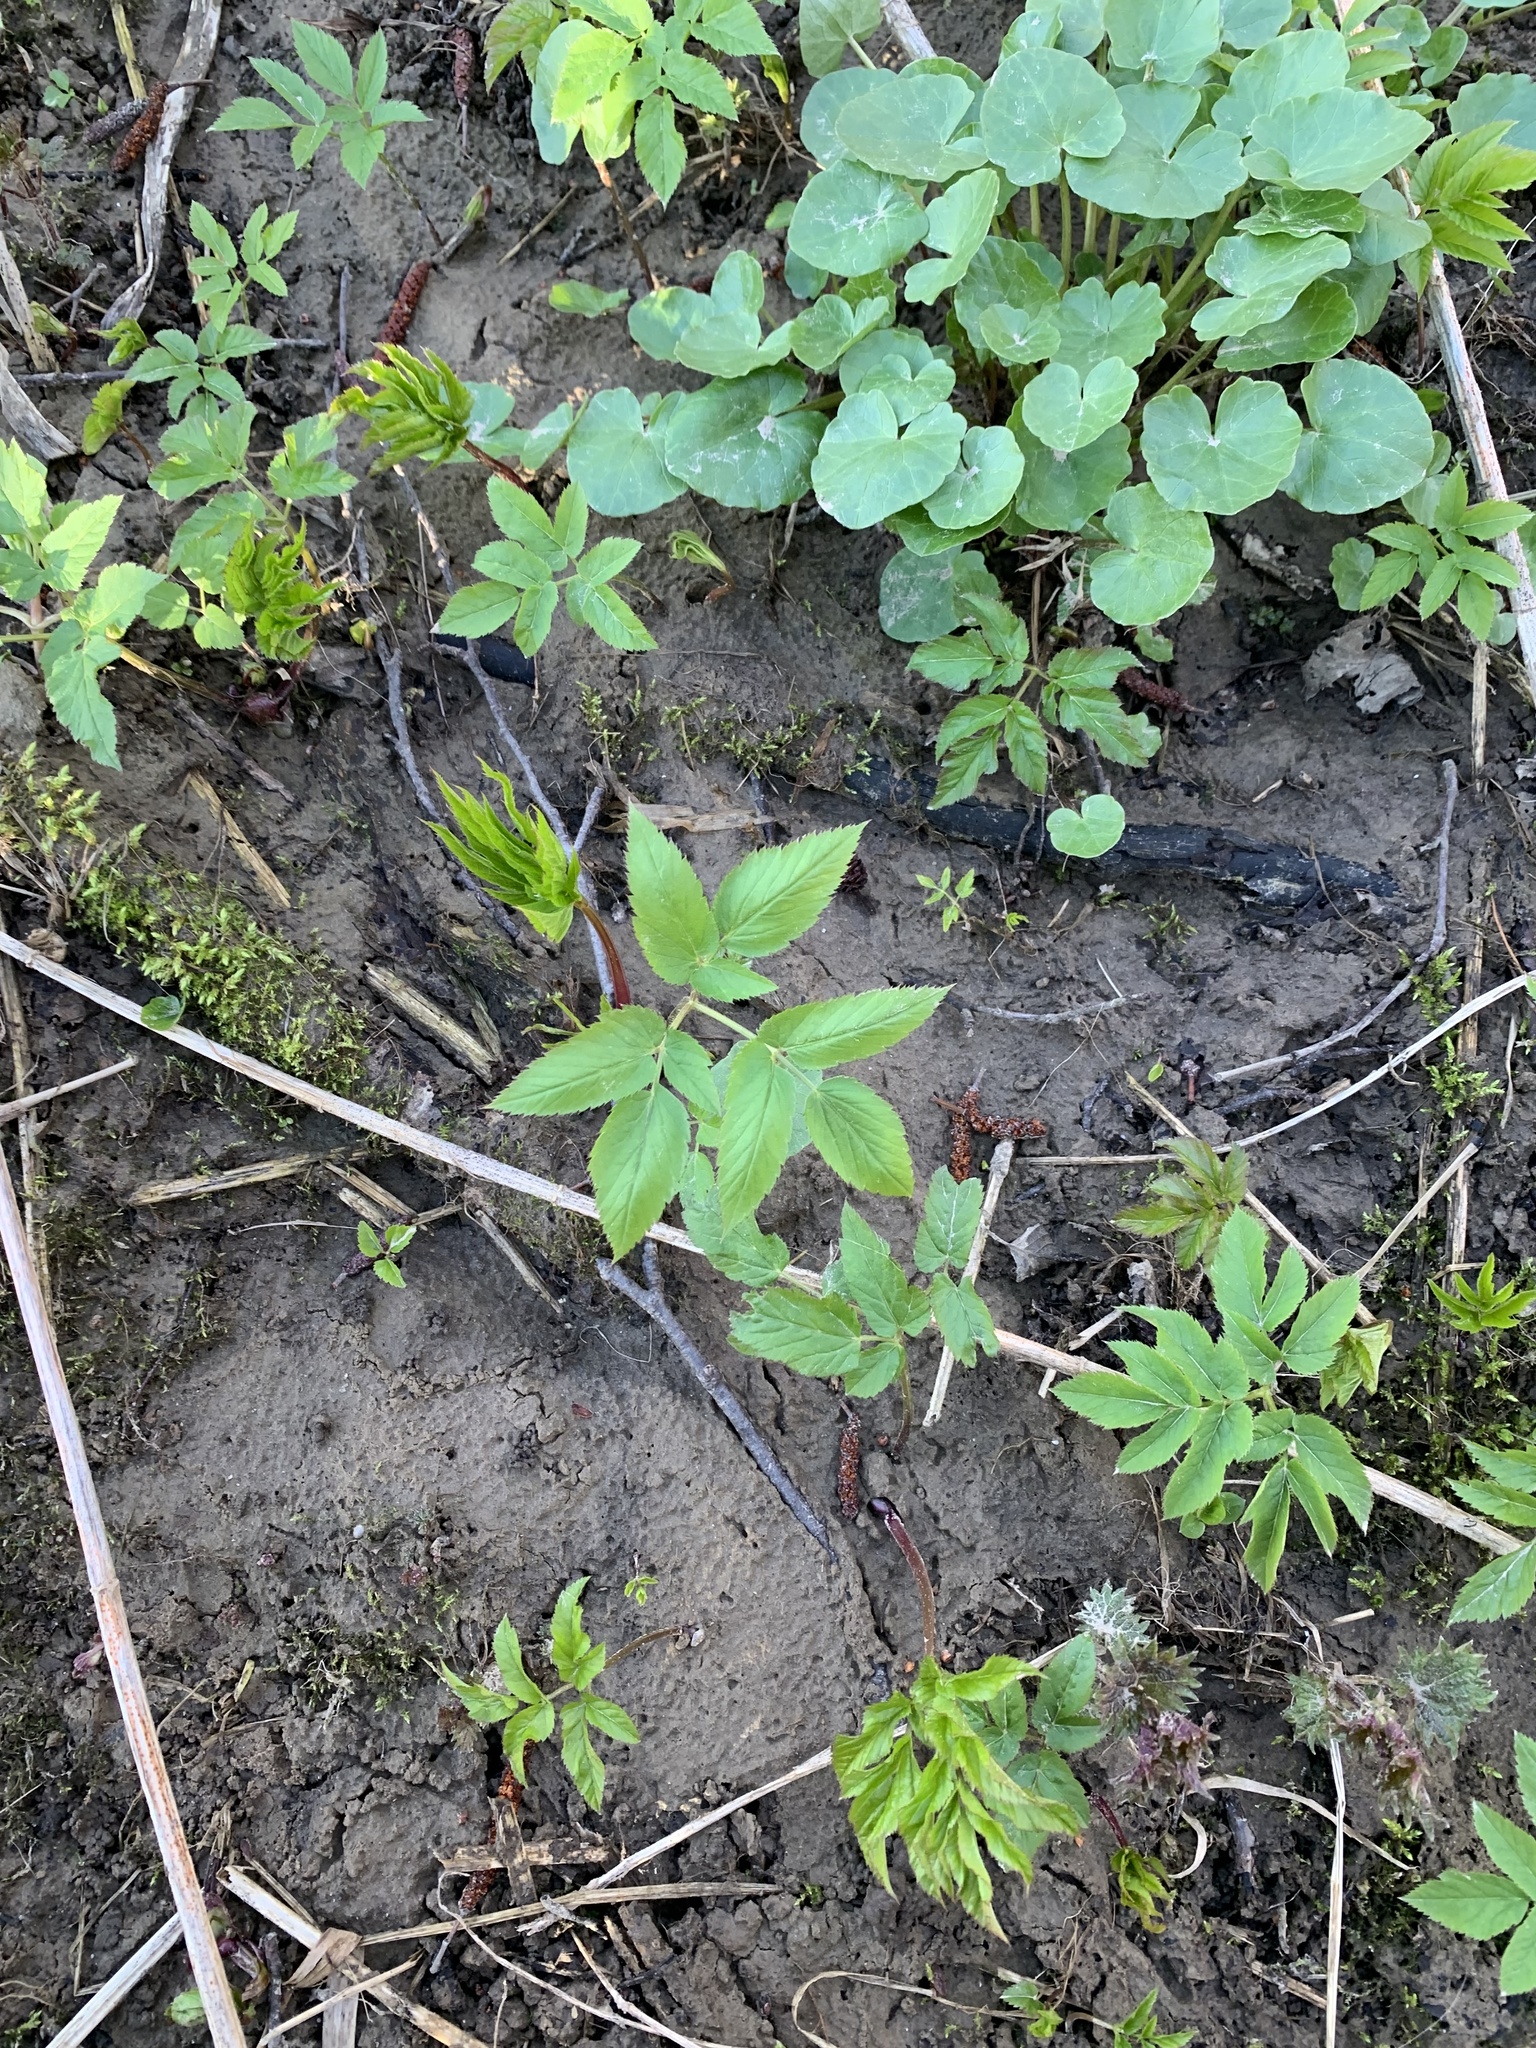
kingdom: Plantae
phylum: Tracheophyta
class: Magnoliopsida
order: Apiales
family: Apiaceae
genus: Aegopodium
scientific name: Aegopodium podagraria
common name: Ground-elder
